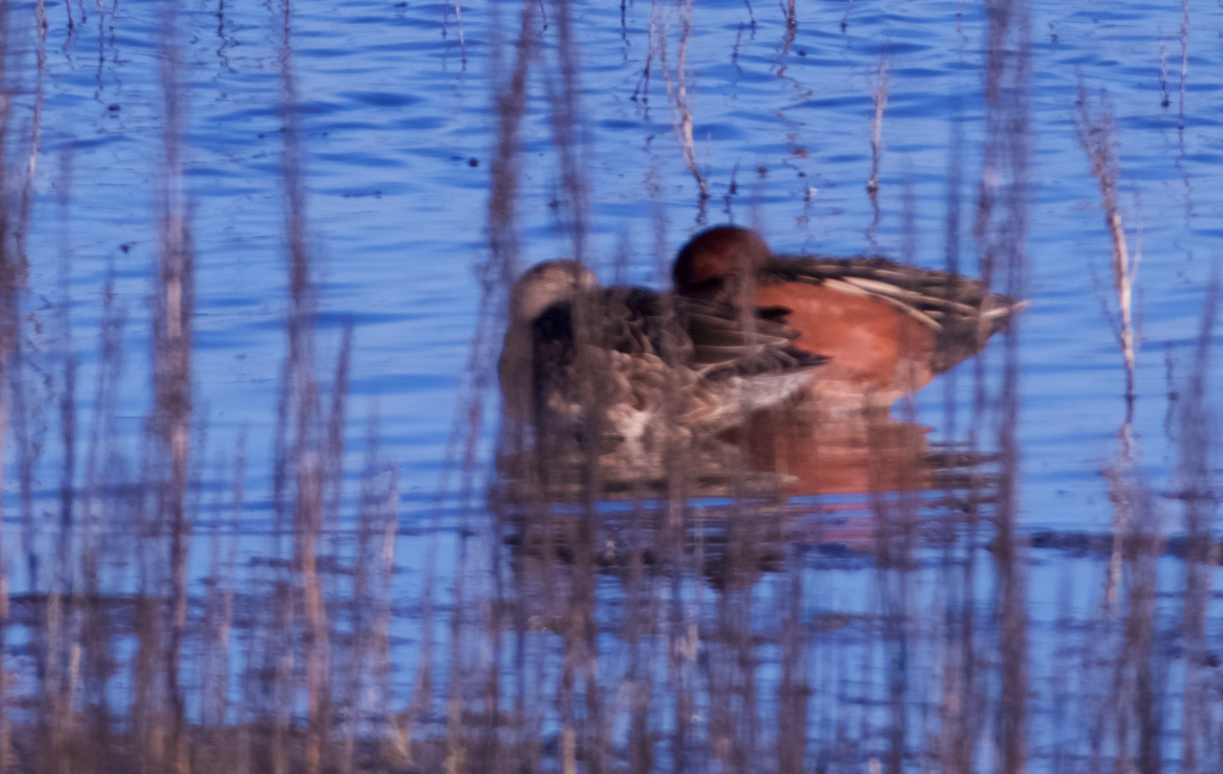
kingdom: Animalia
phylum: Chordata
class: Aves
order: Anseriformes
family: Anatidae
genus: Spatula
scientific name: Spatula cyanoptera
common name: Cinnamon teal
